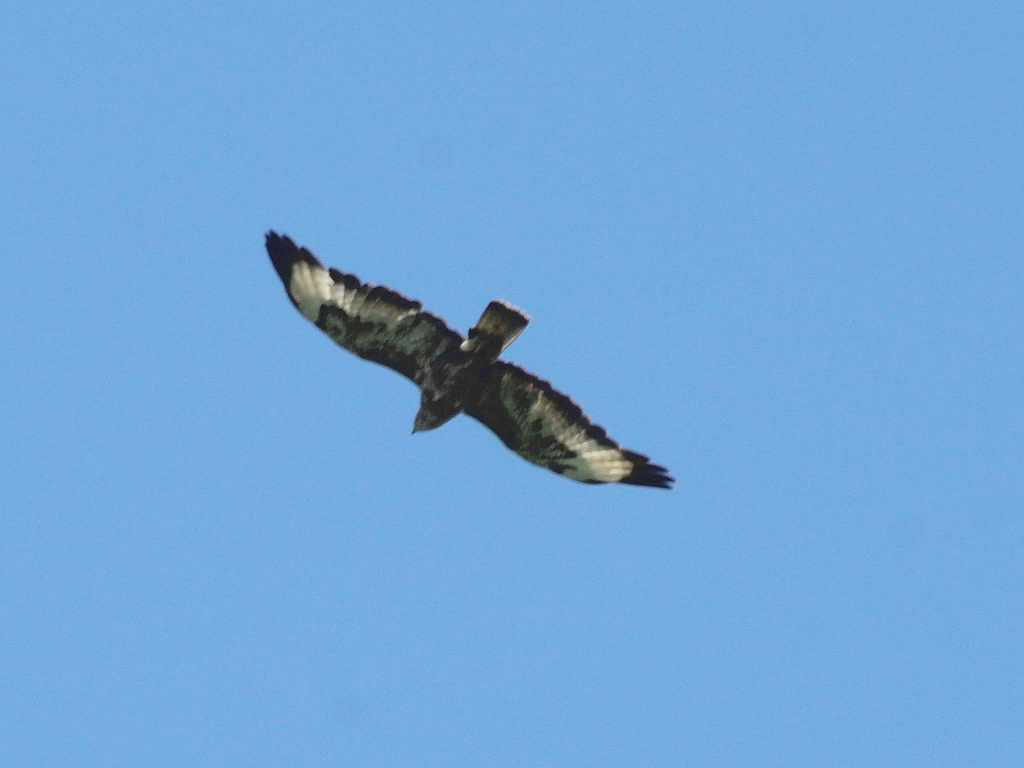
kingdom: Animalia
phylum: Chordata
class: Aves
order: Accipitriformes
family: Accipitridae
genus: Buteo
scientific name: Buteo buteo
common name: Common buzzard
